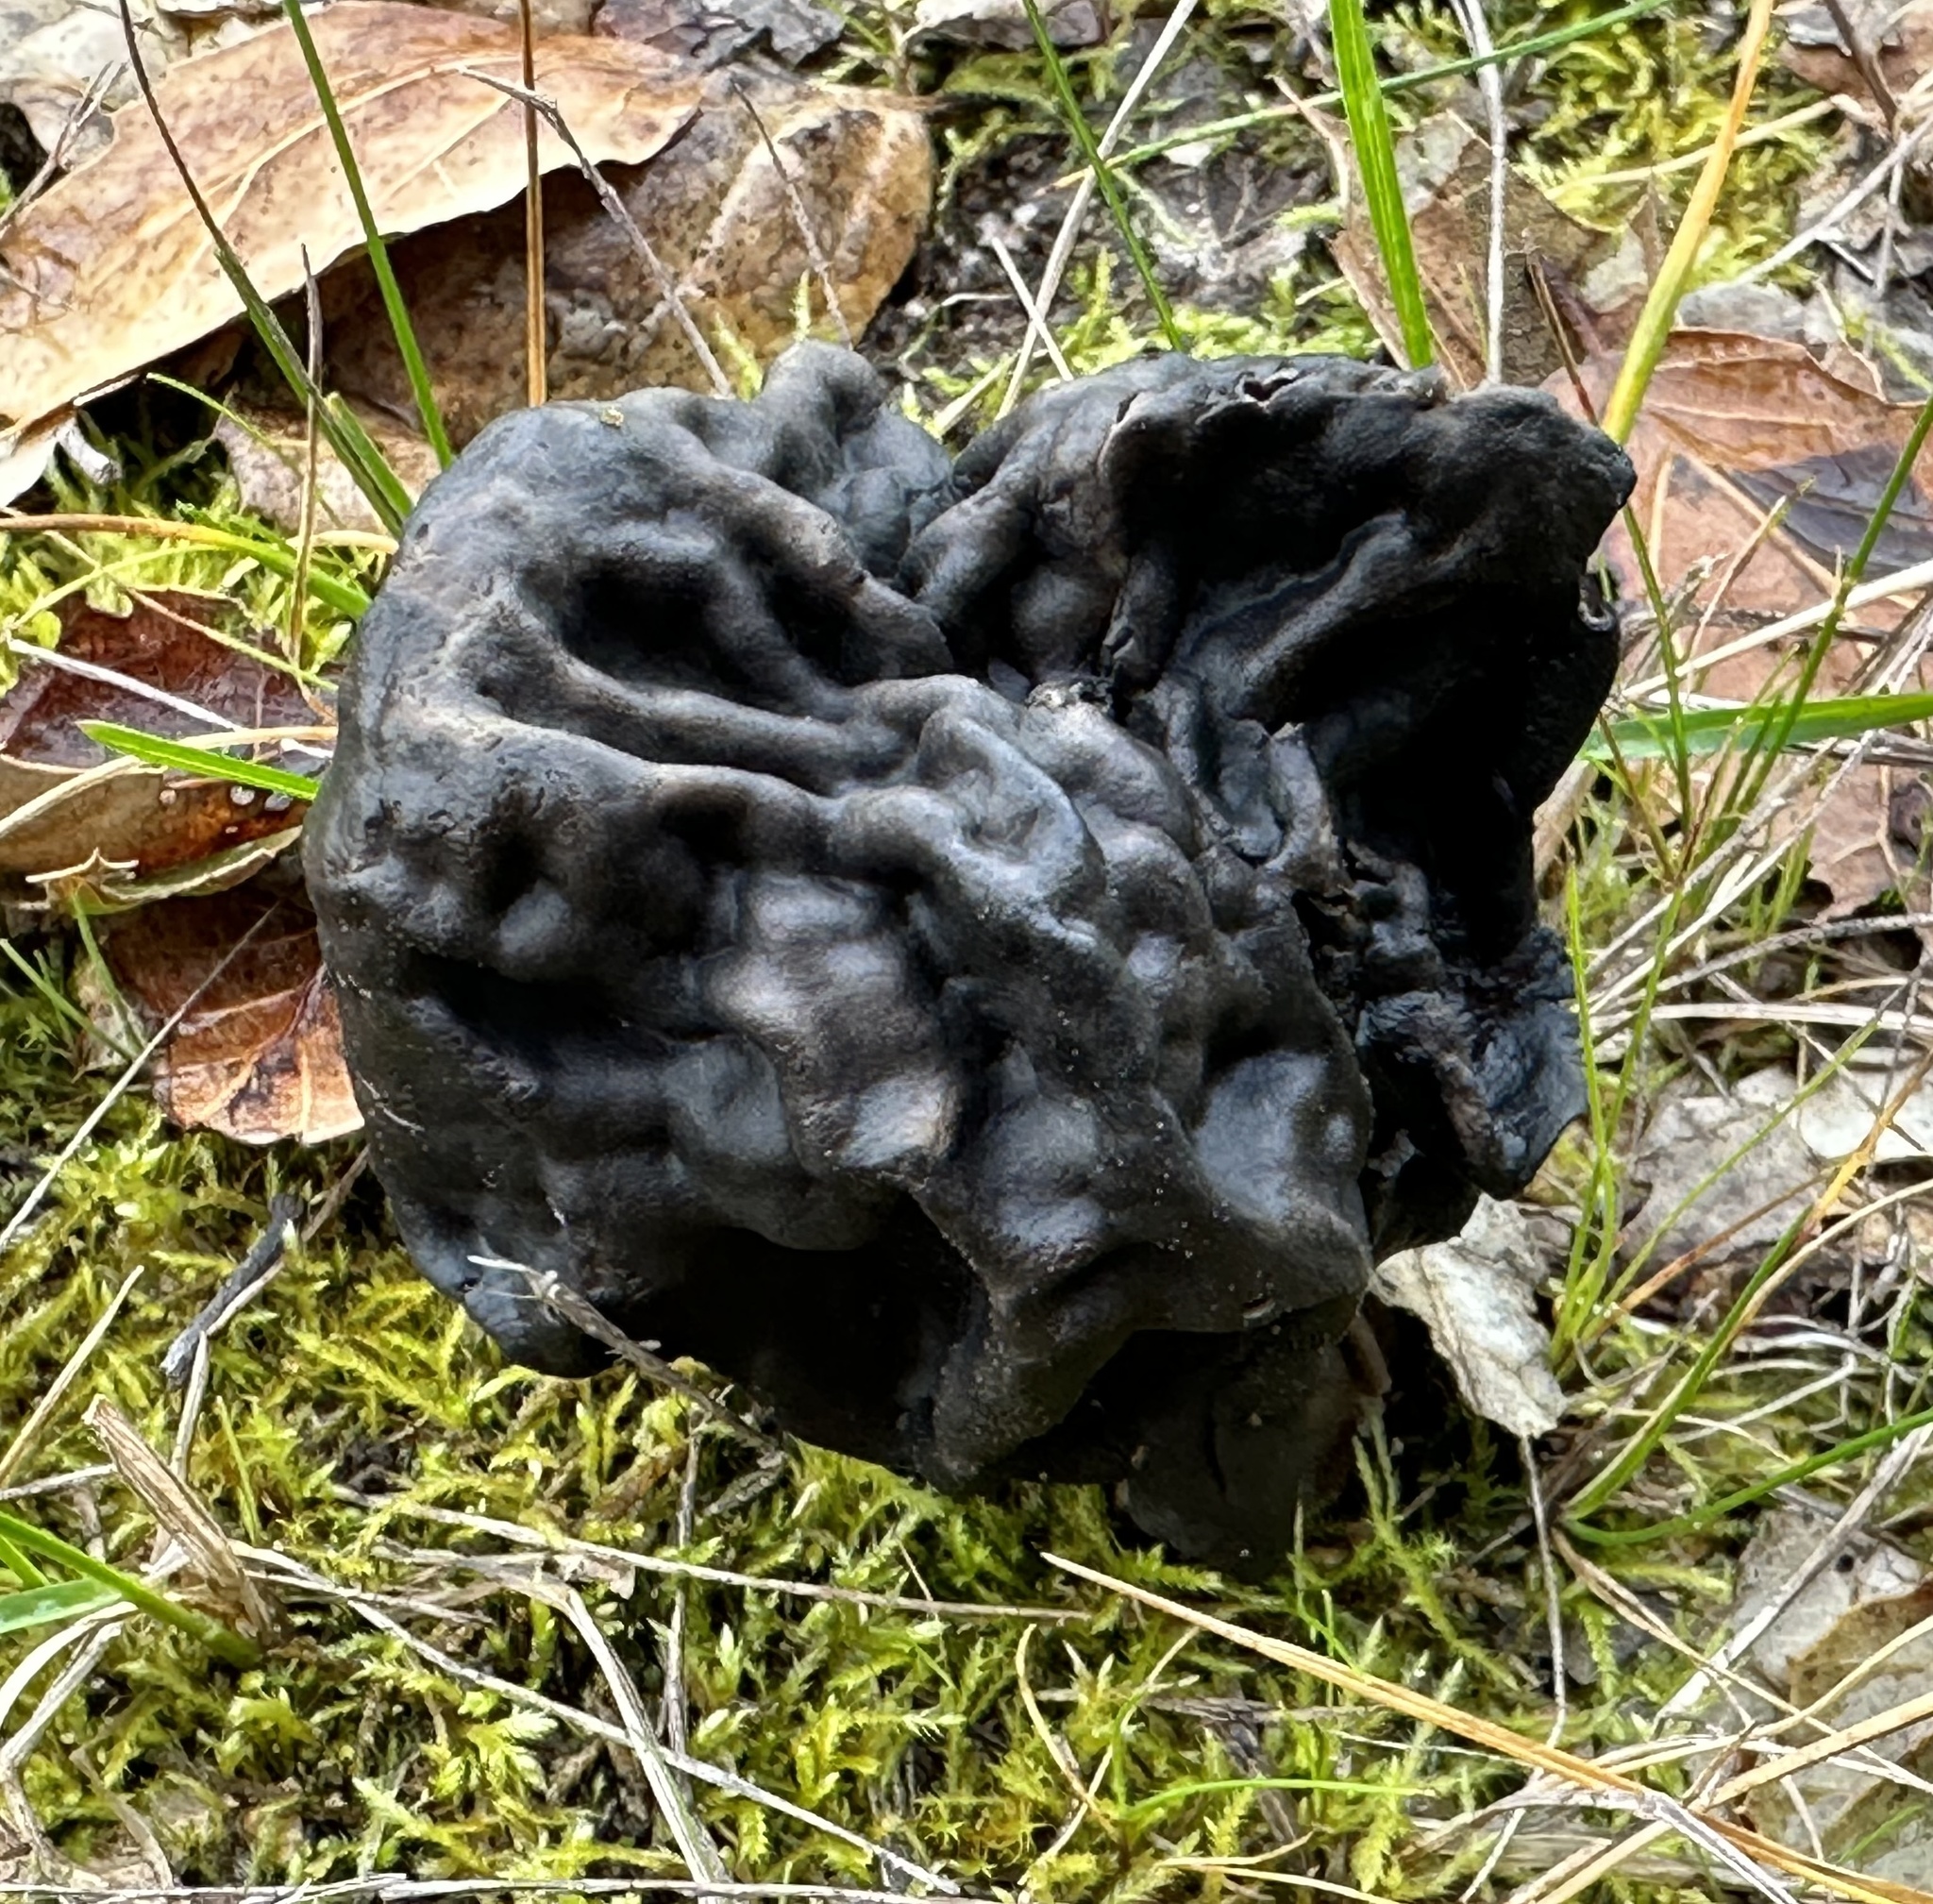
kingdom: Fungi
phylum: Ascomycota
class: Pezizomycetes
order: Pezizales
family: Helvellaceae
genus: Helvella
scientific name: Helvella dryophila
